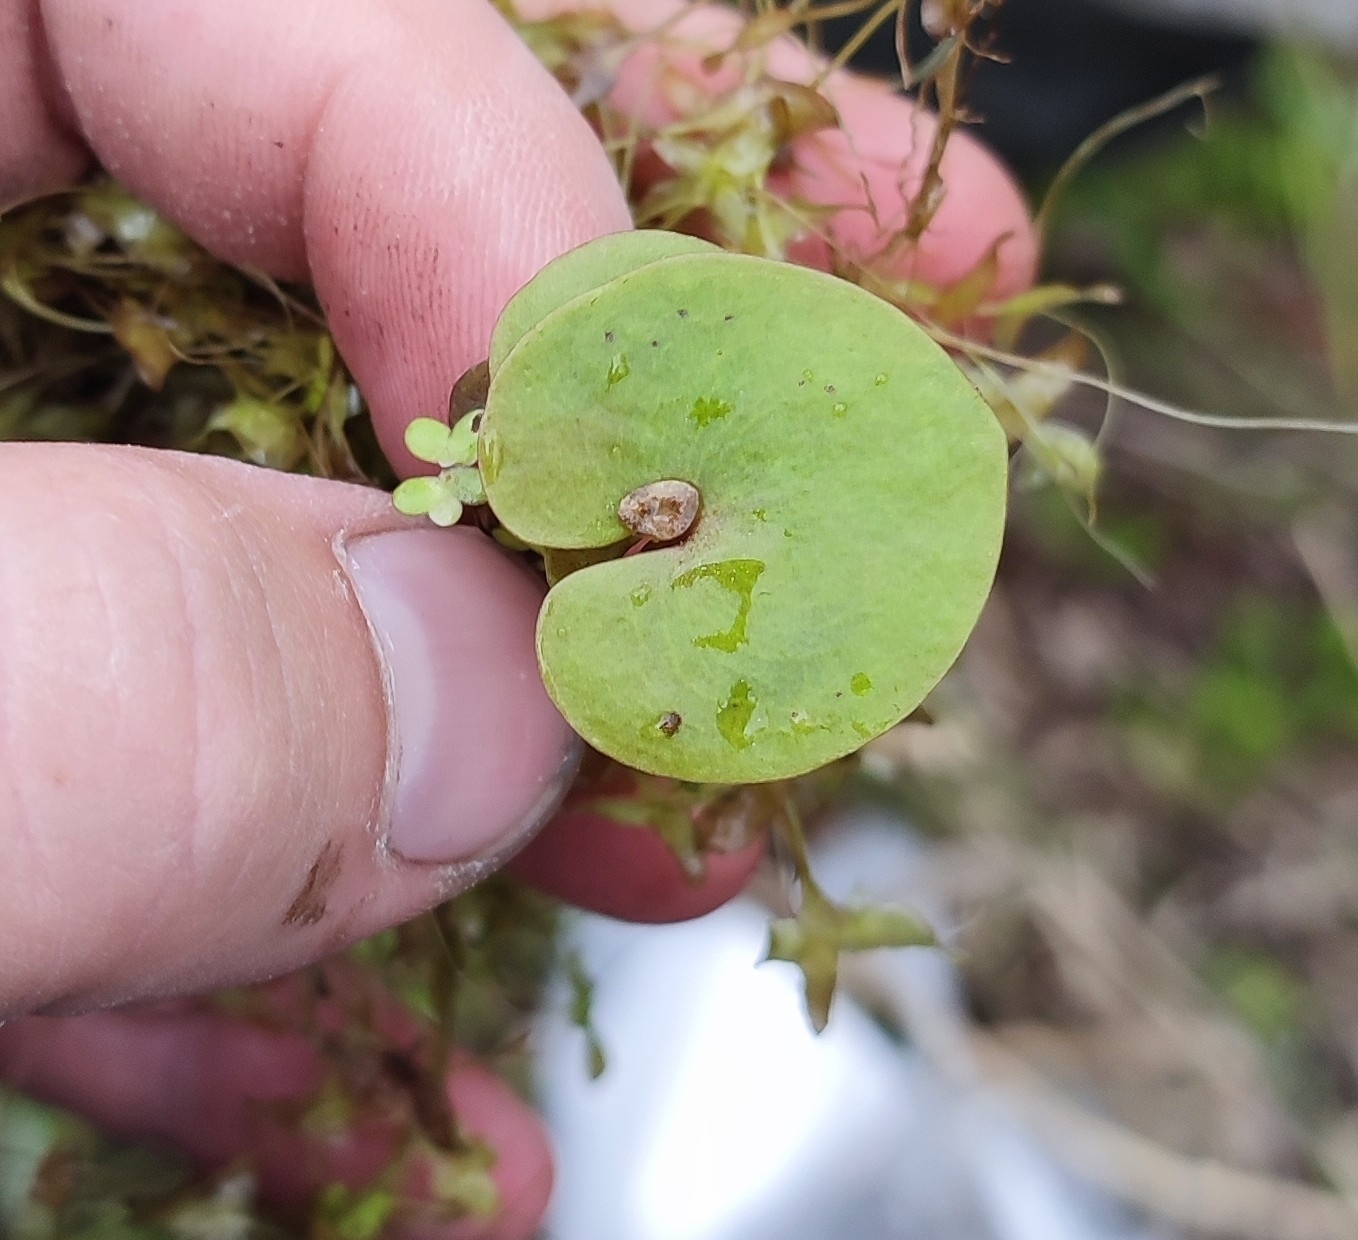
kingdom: Plantae
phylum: Tracheophyta
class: Liliopsida
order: Alismatales
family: Hydrocharitaceae
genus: Hydrocharis
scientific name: Hydrocharis morsus-ranae
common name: Frogbit
